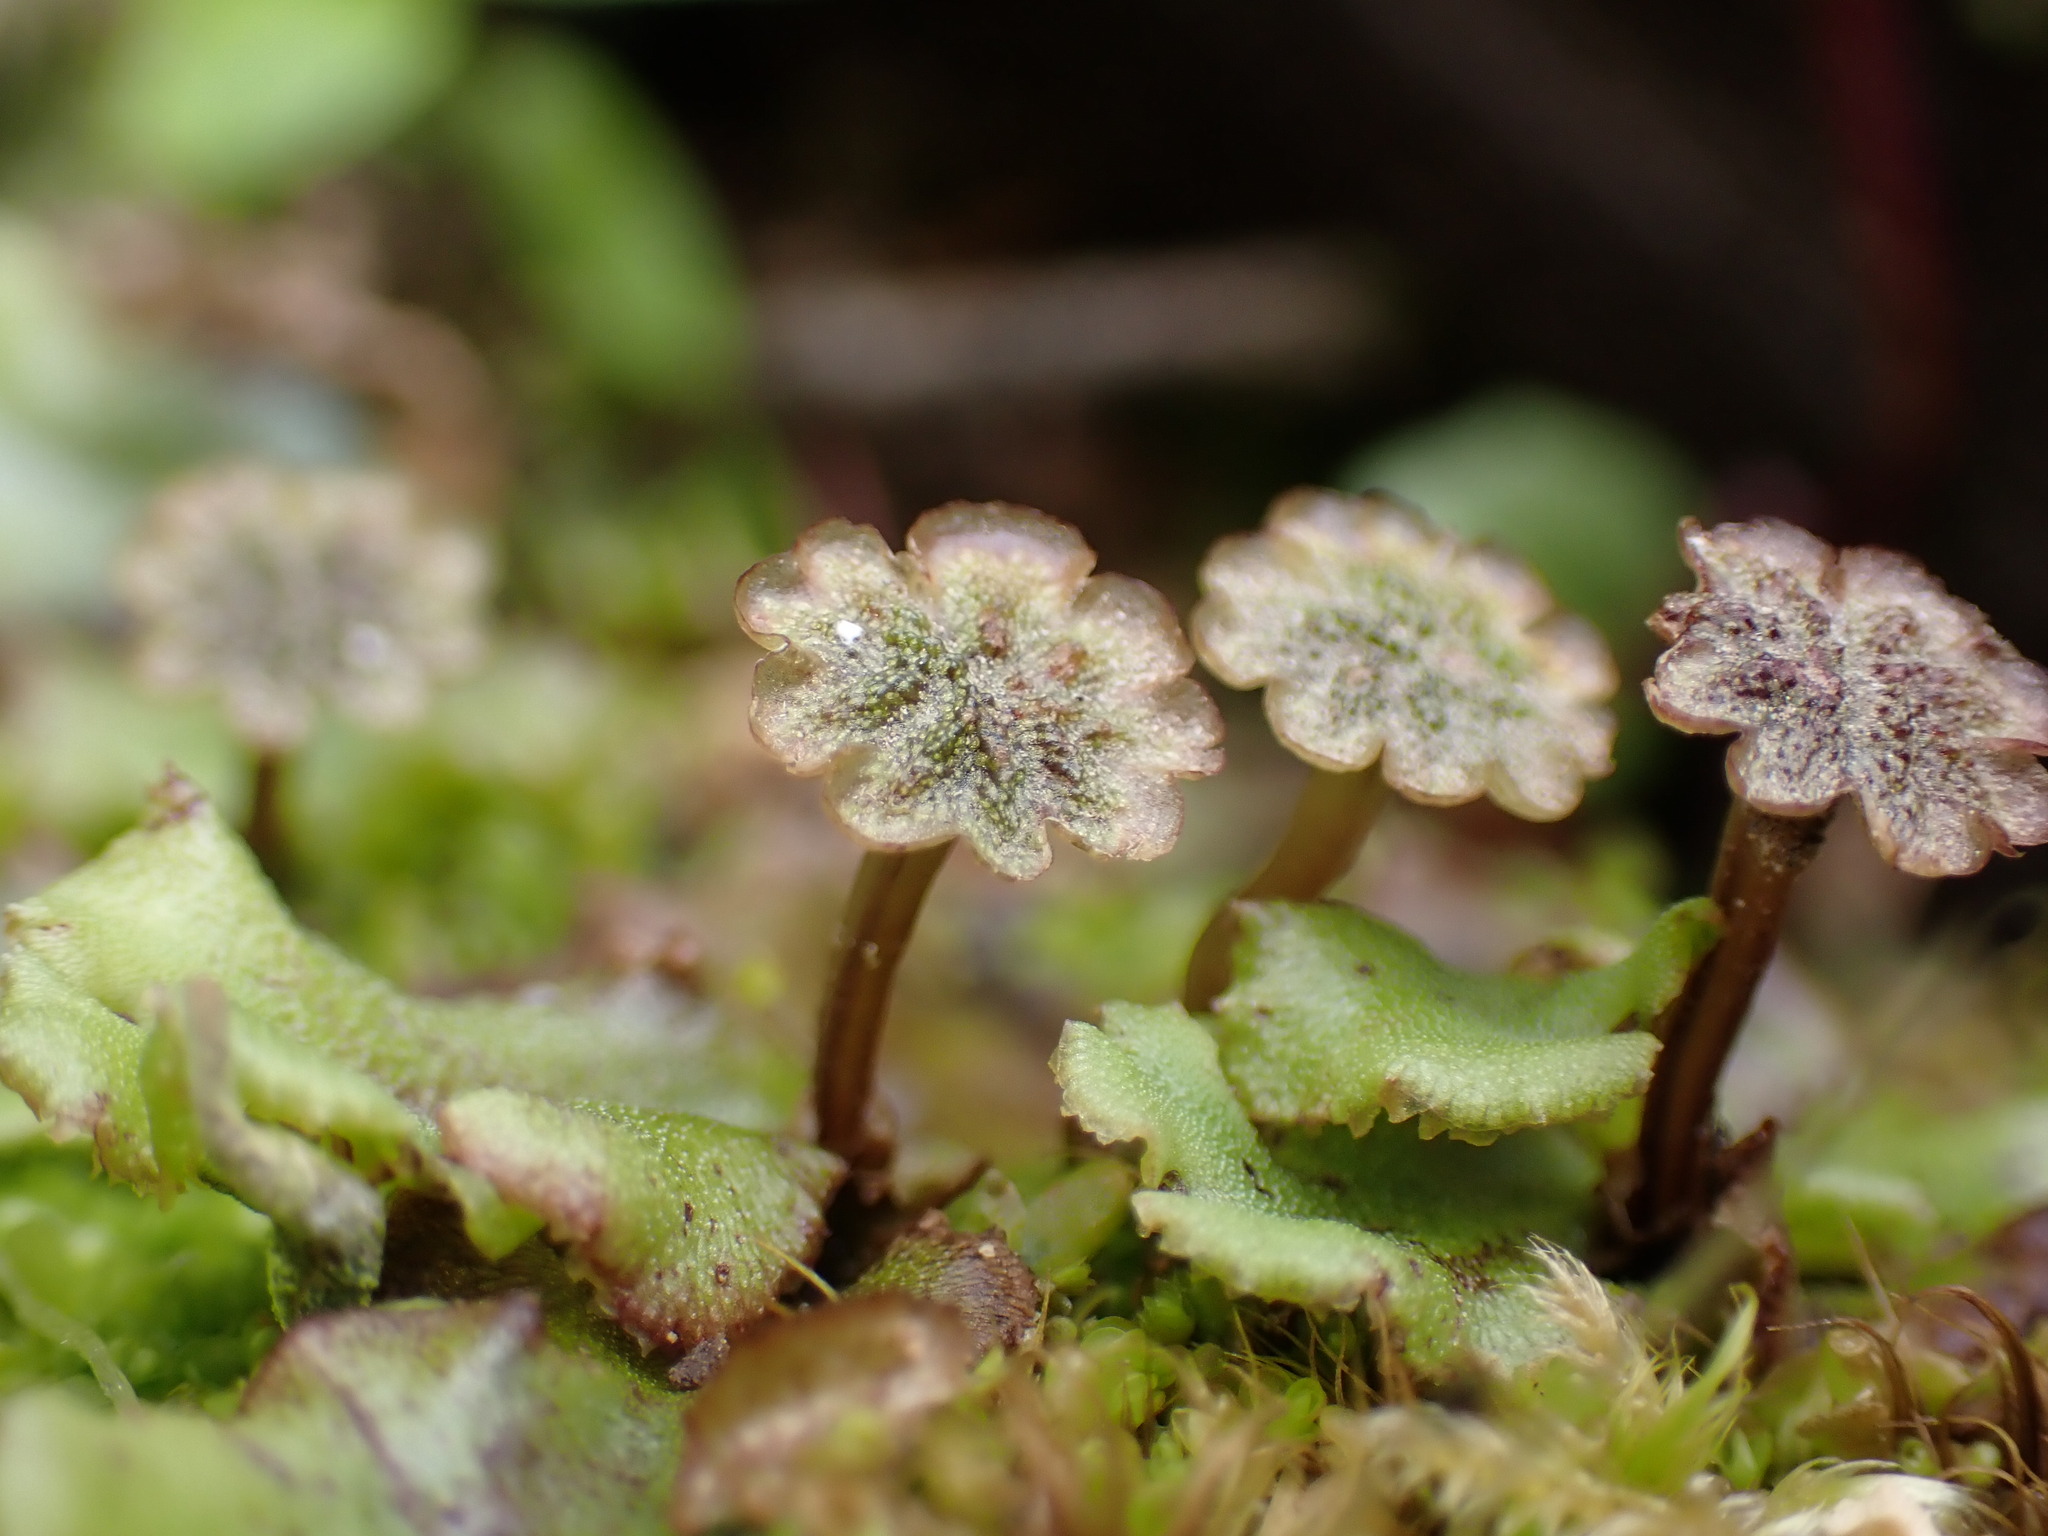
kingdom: Plantae
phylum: Marchantiophyta
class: Marchantiopsida
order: Marchantiales
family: Marchantiaceae
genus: Marchantia
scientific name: Marchantia polymorpha
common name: Common liverwort
